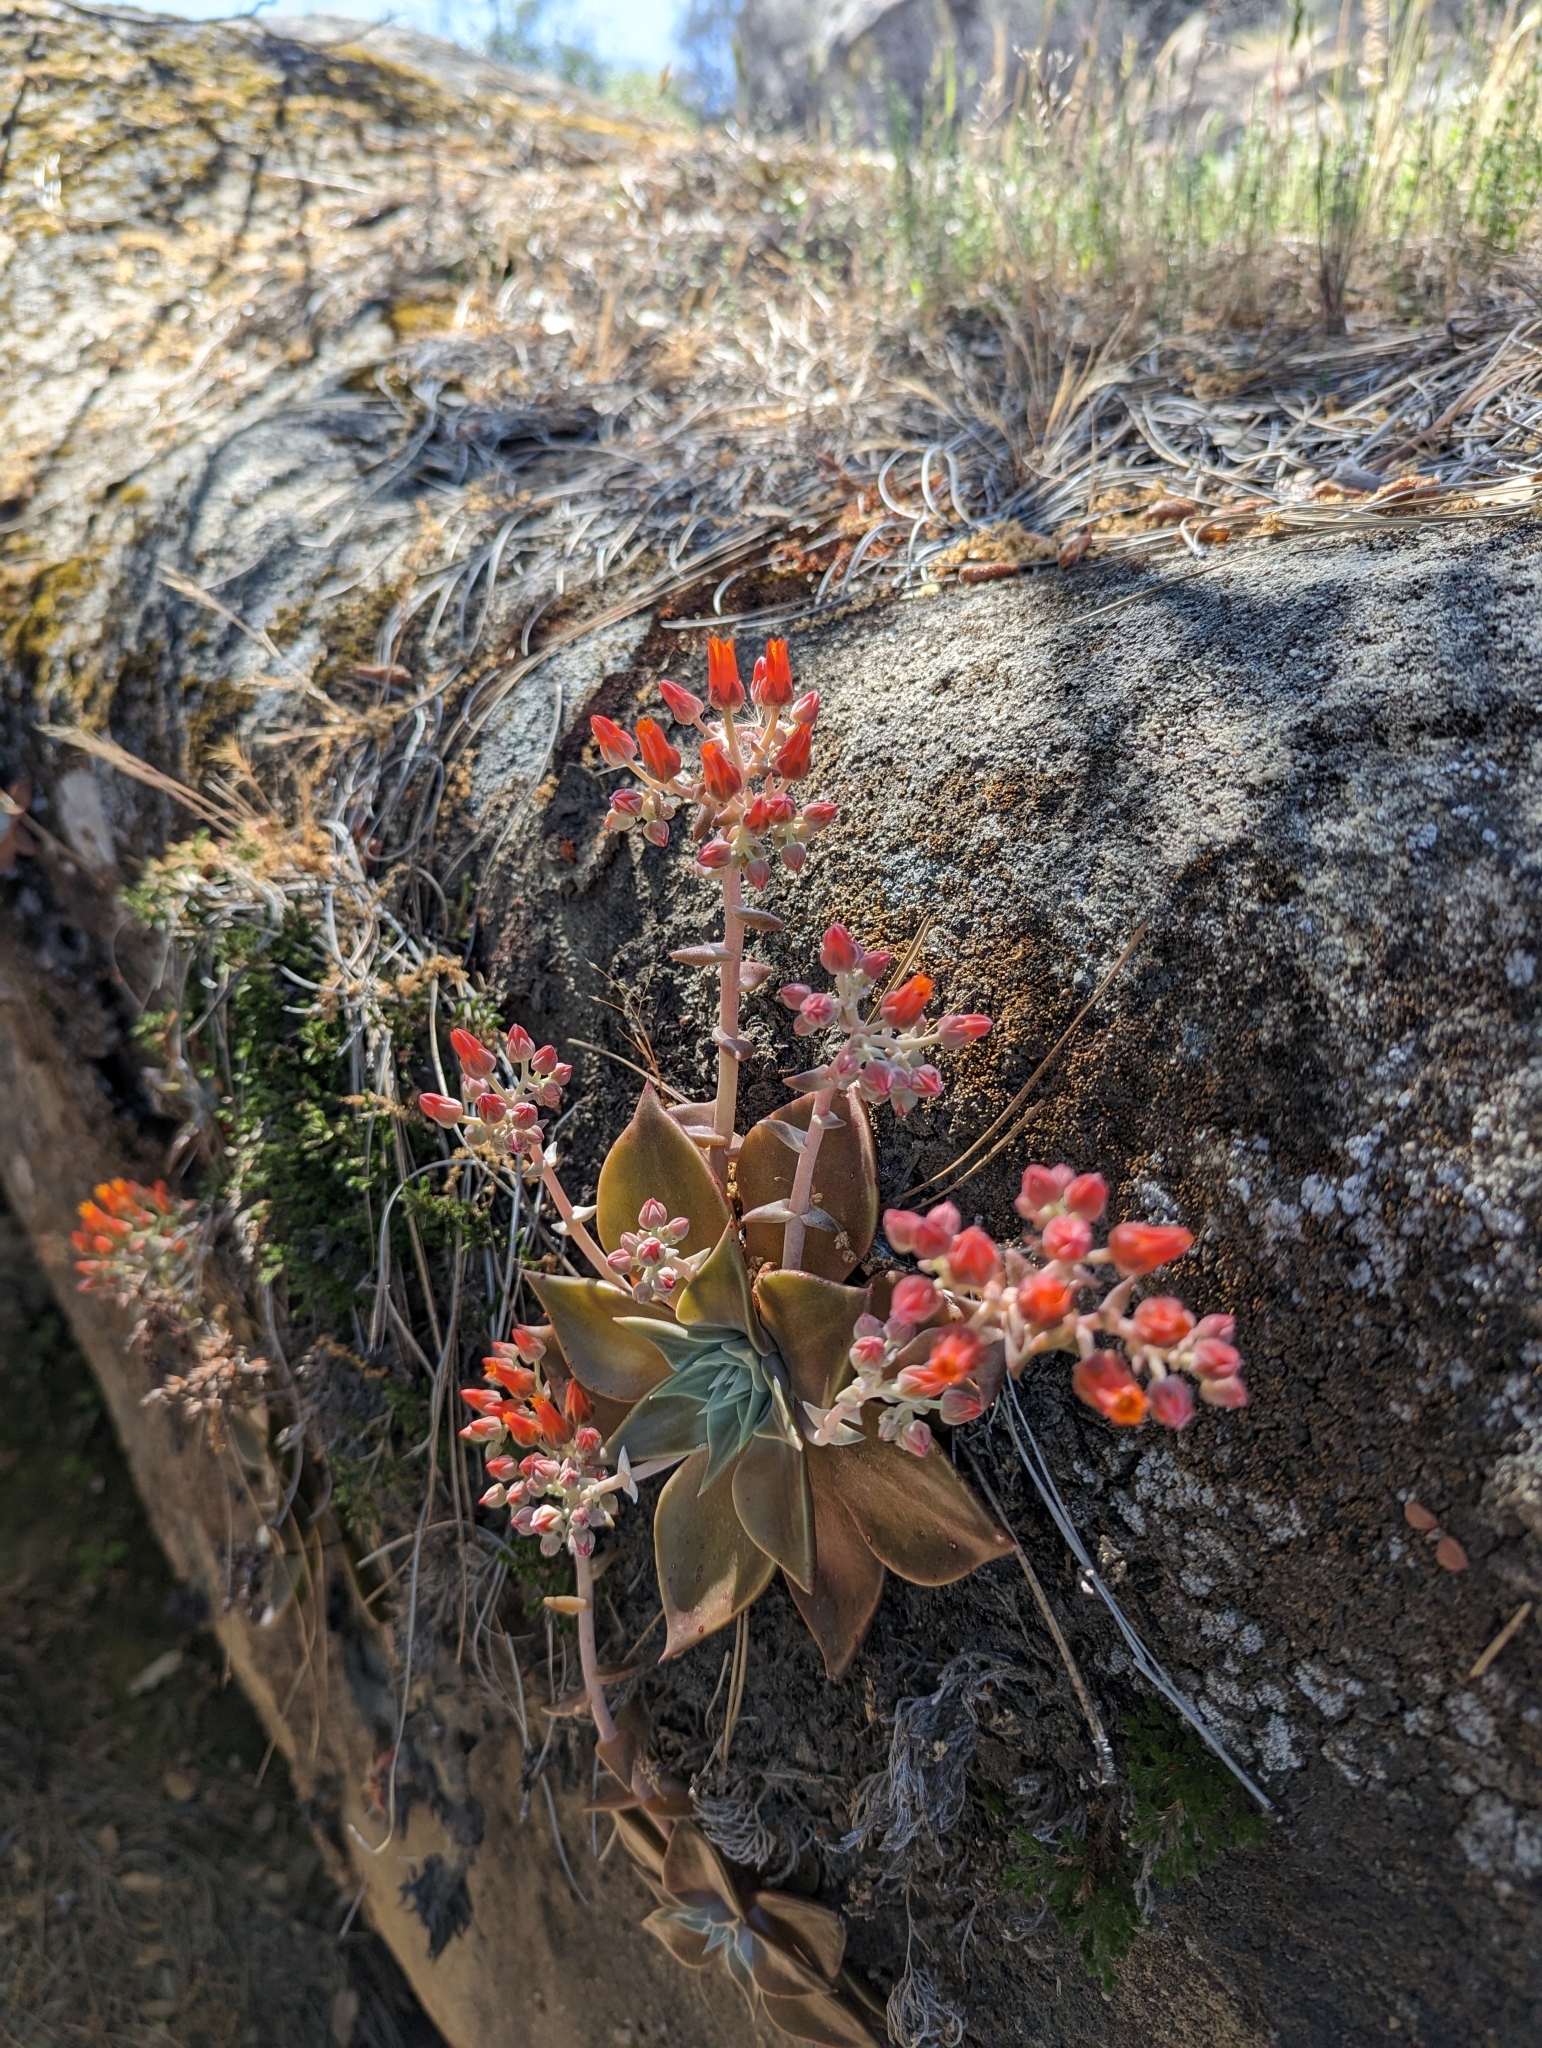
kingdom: Plantae
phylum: Tracheophyta
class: Magnoliopsida
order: Saxifragales
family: Crassulaceae
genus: Dudleya
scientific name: Dudleya cymosa
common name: Canyon dudleya
